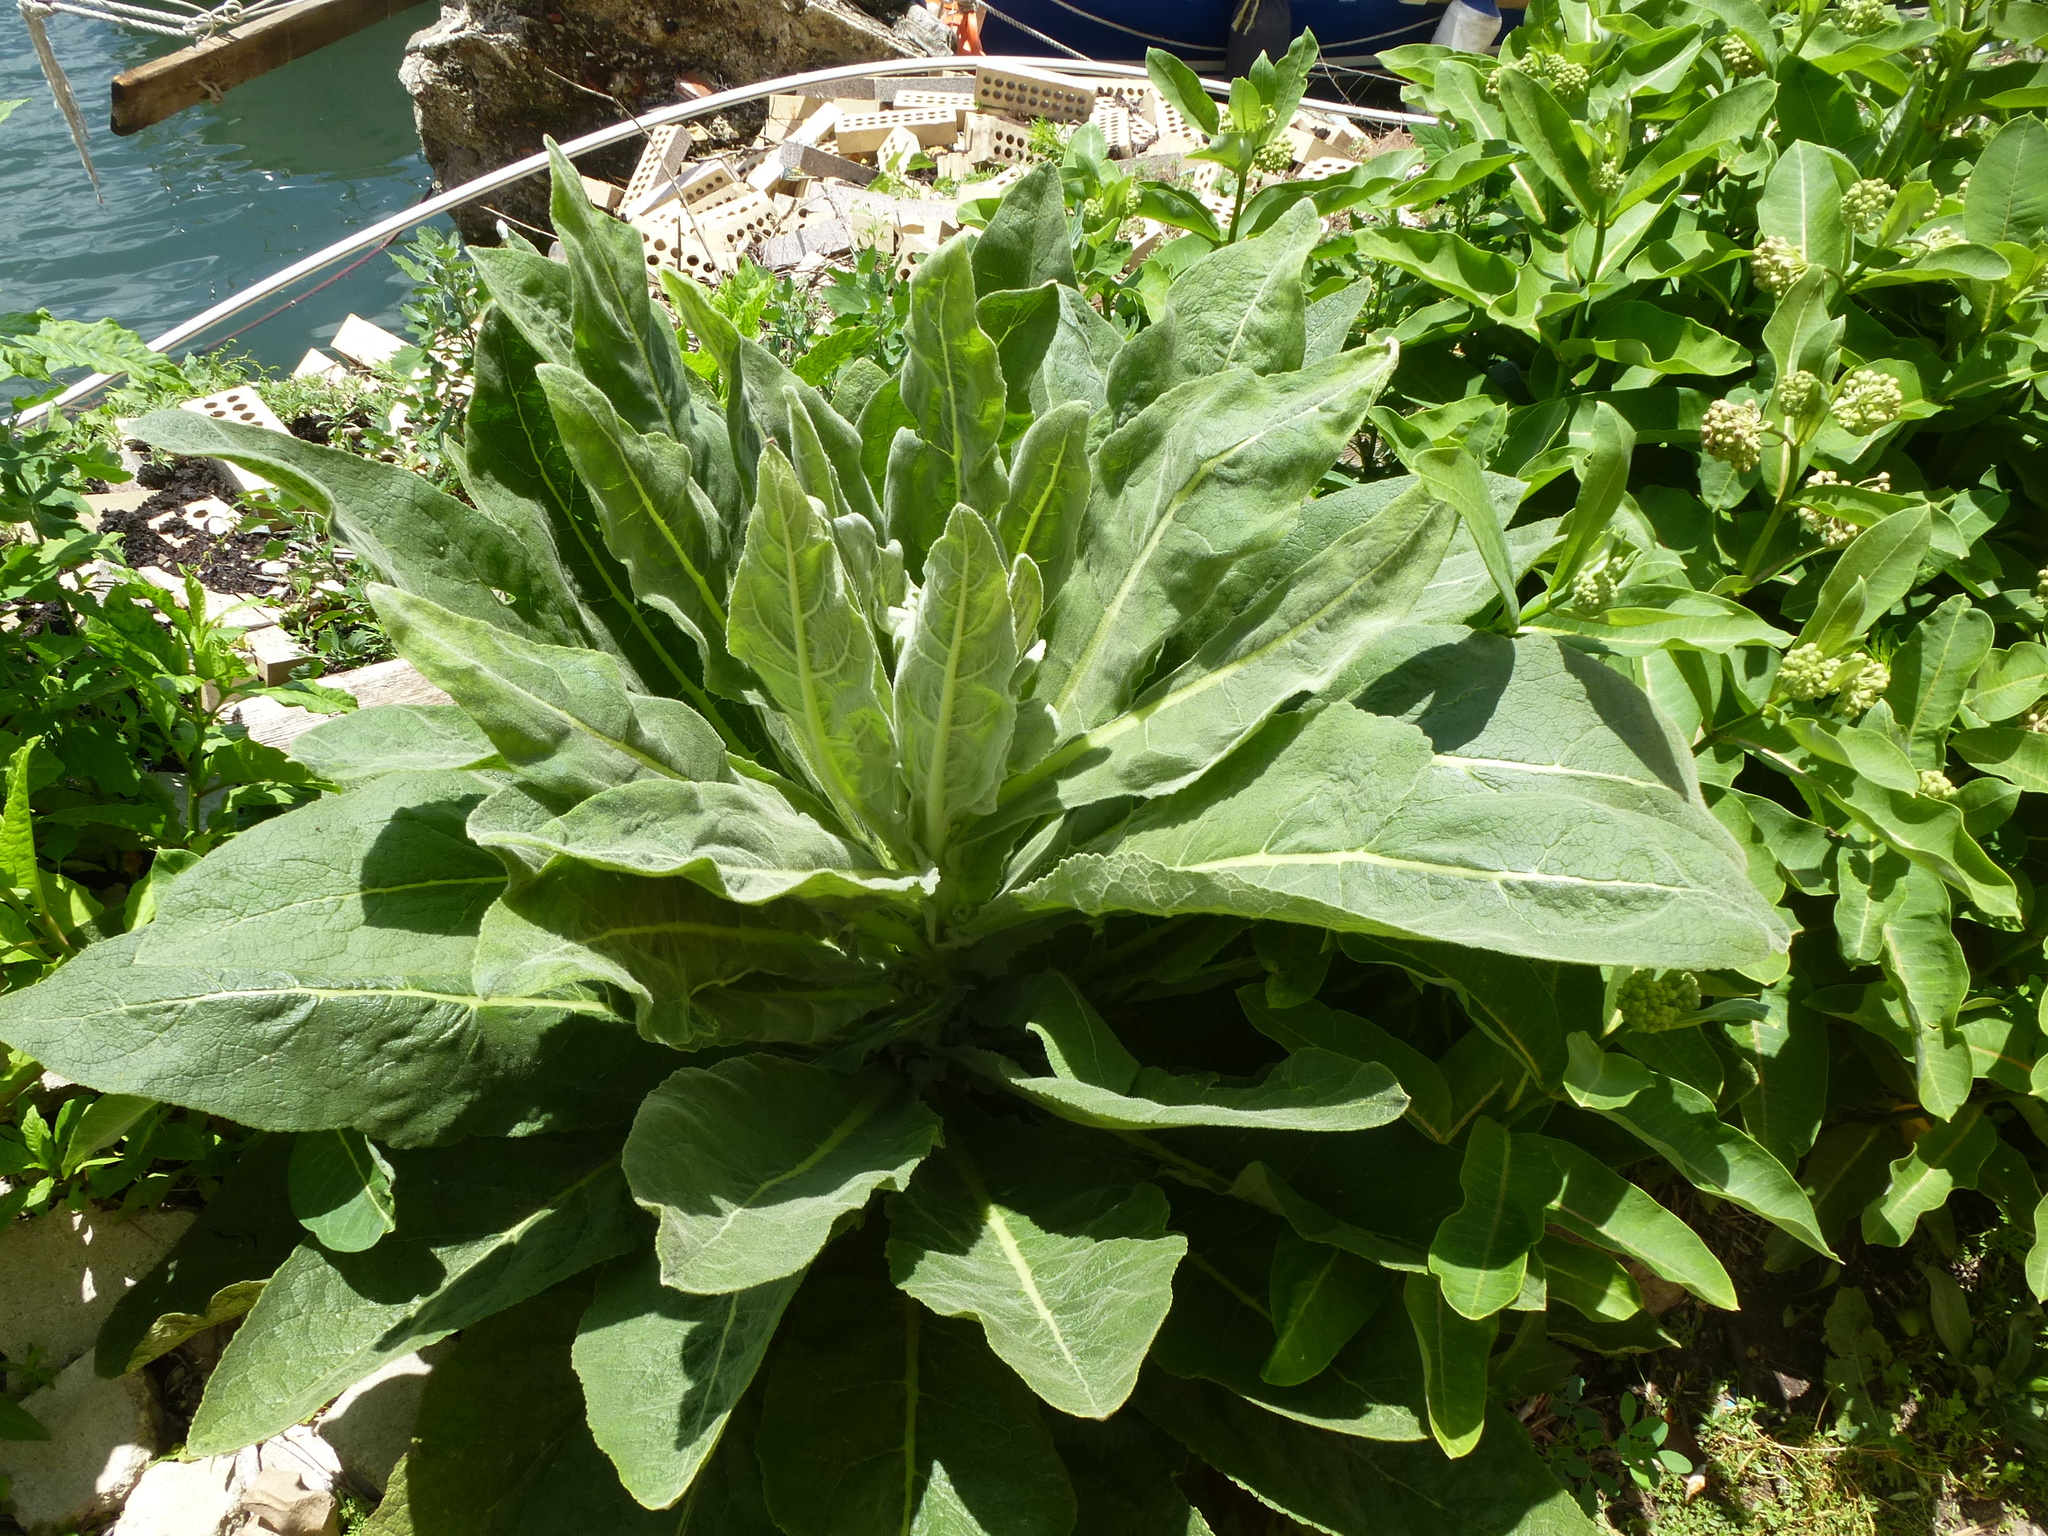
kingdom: Plantae
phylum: Tracheophyta
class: Magnoliopsida
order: Lamiales
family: Scrophulariaceae
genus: Verbascum
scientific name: Verbascum thapsus
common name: Common mullein
